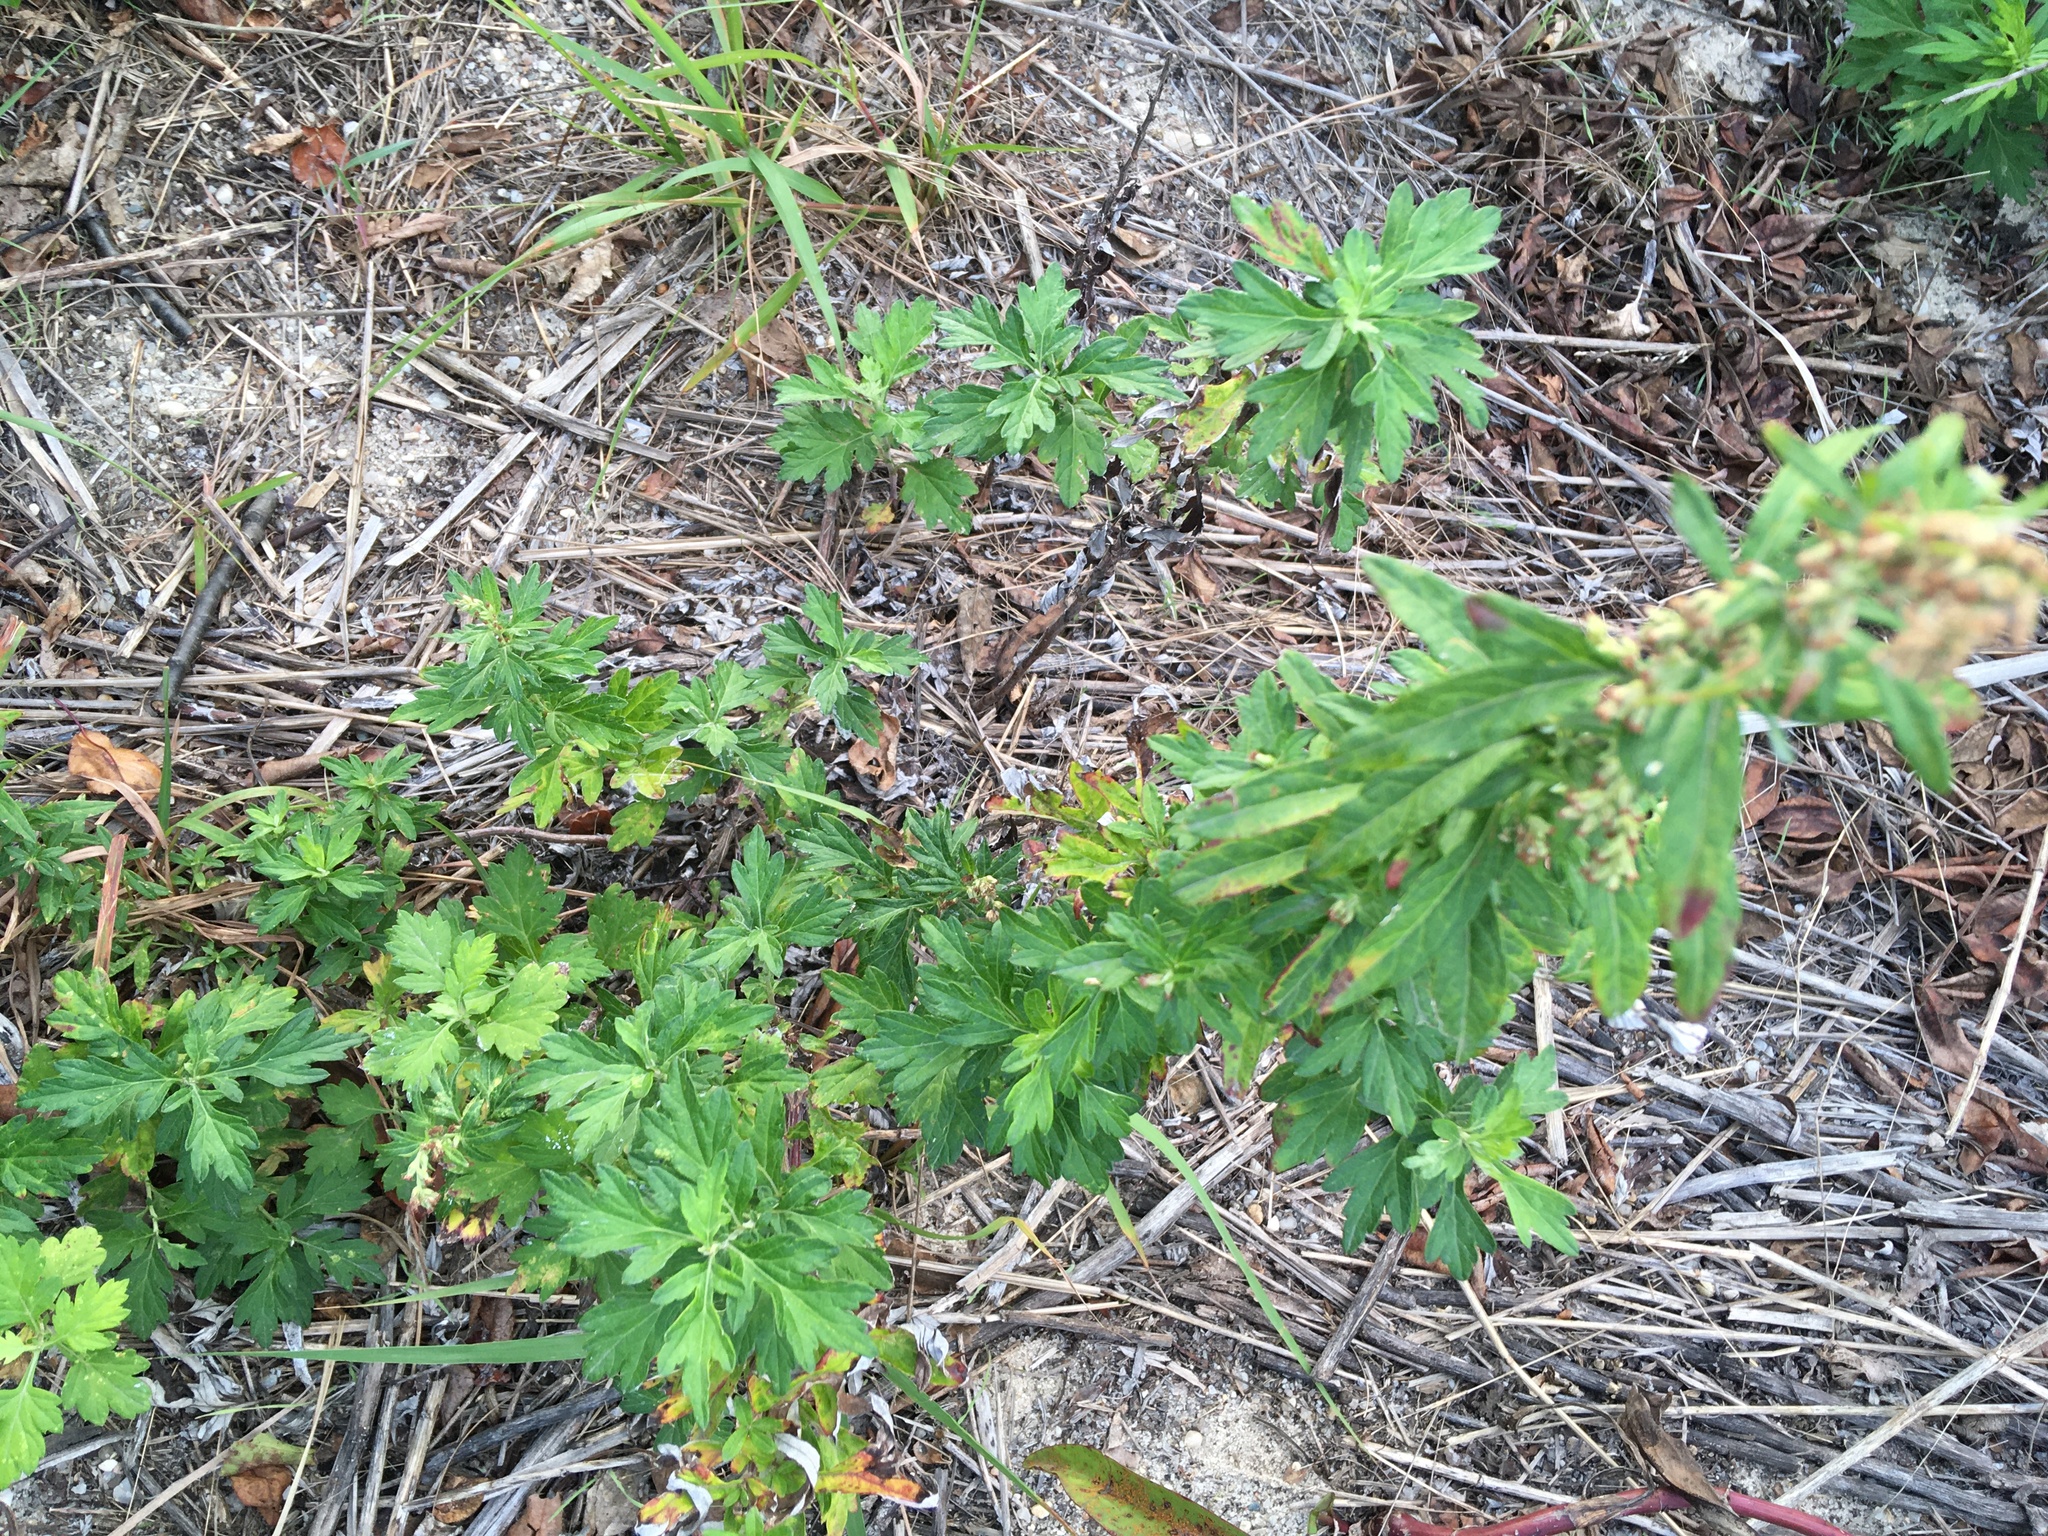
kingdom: Plantae
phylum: Tracheophyta
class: Magnoliopsida
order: Asterales
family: Asteraceae
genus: Artemisia
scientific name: Artemisia vulgaris
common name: Mugwort
